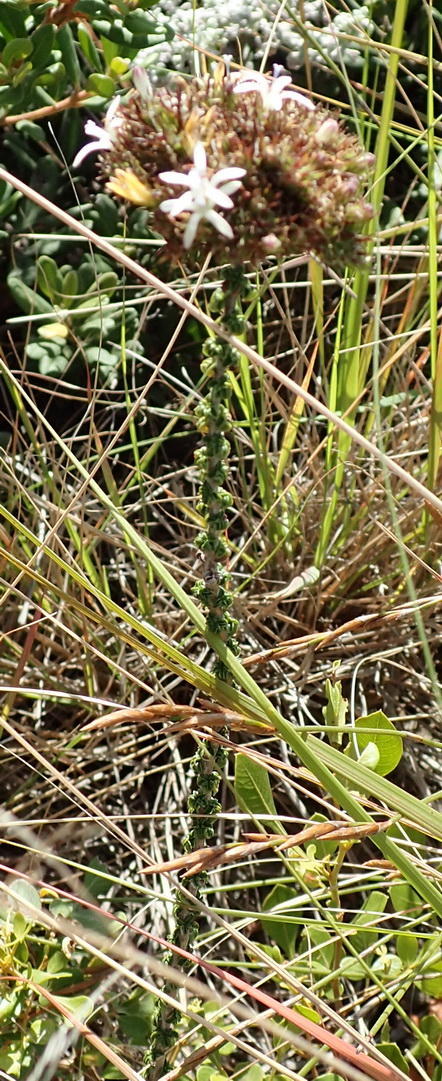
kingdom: Plantae
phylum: Tracheophyta
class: Magnoliopsida
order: Asterales
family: Campanulaceae
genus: Wahlenbergia
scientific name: Wahlenbergia desmantha
